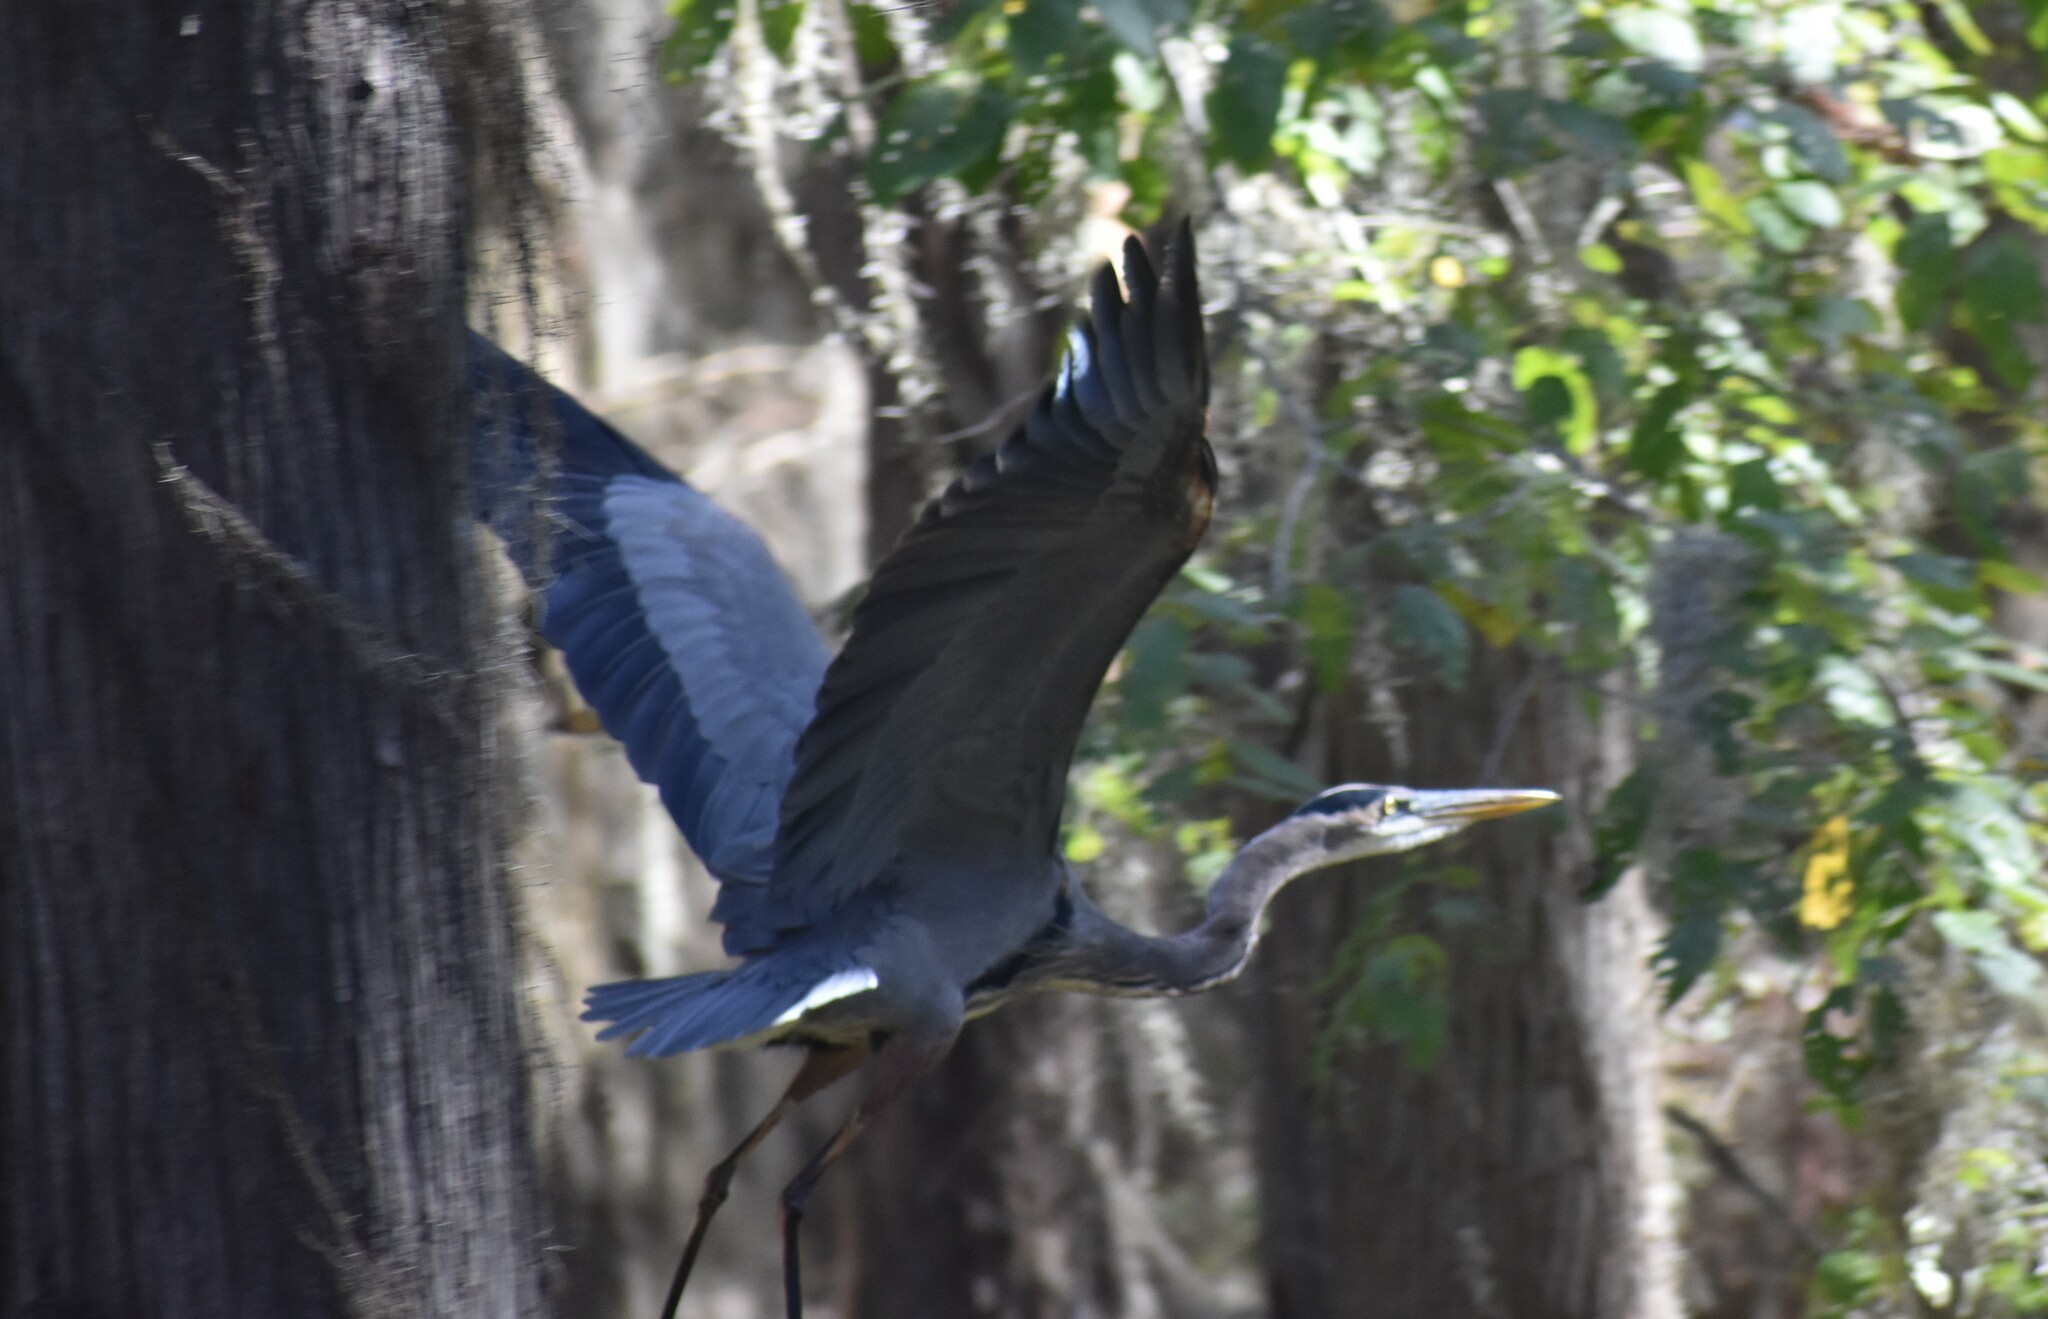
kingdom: Animalia
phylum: Chordata
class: Aves
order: Pelecaniformes
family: Ardeidae
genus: Ardea
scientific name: Ardea herodias
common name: Great blue heron
